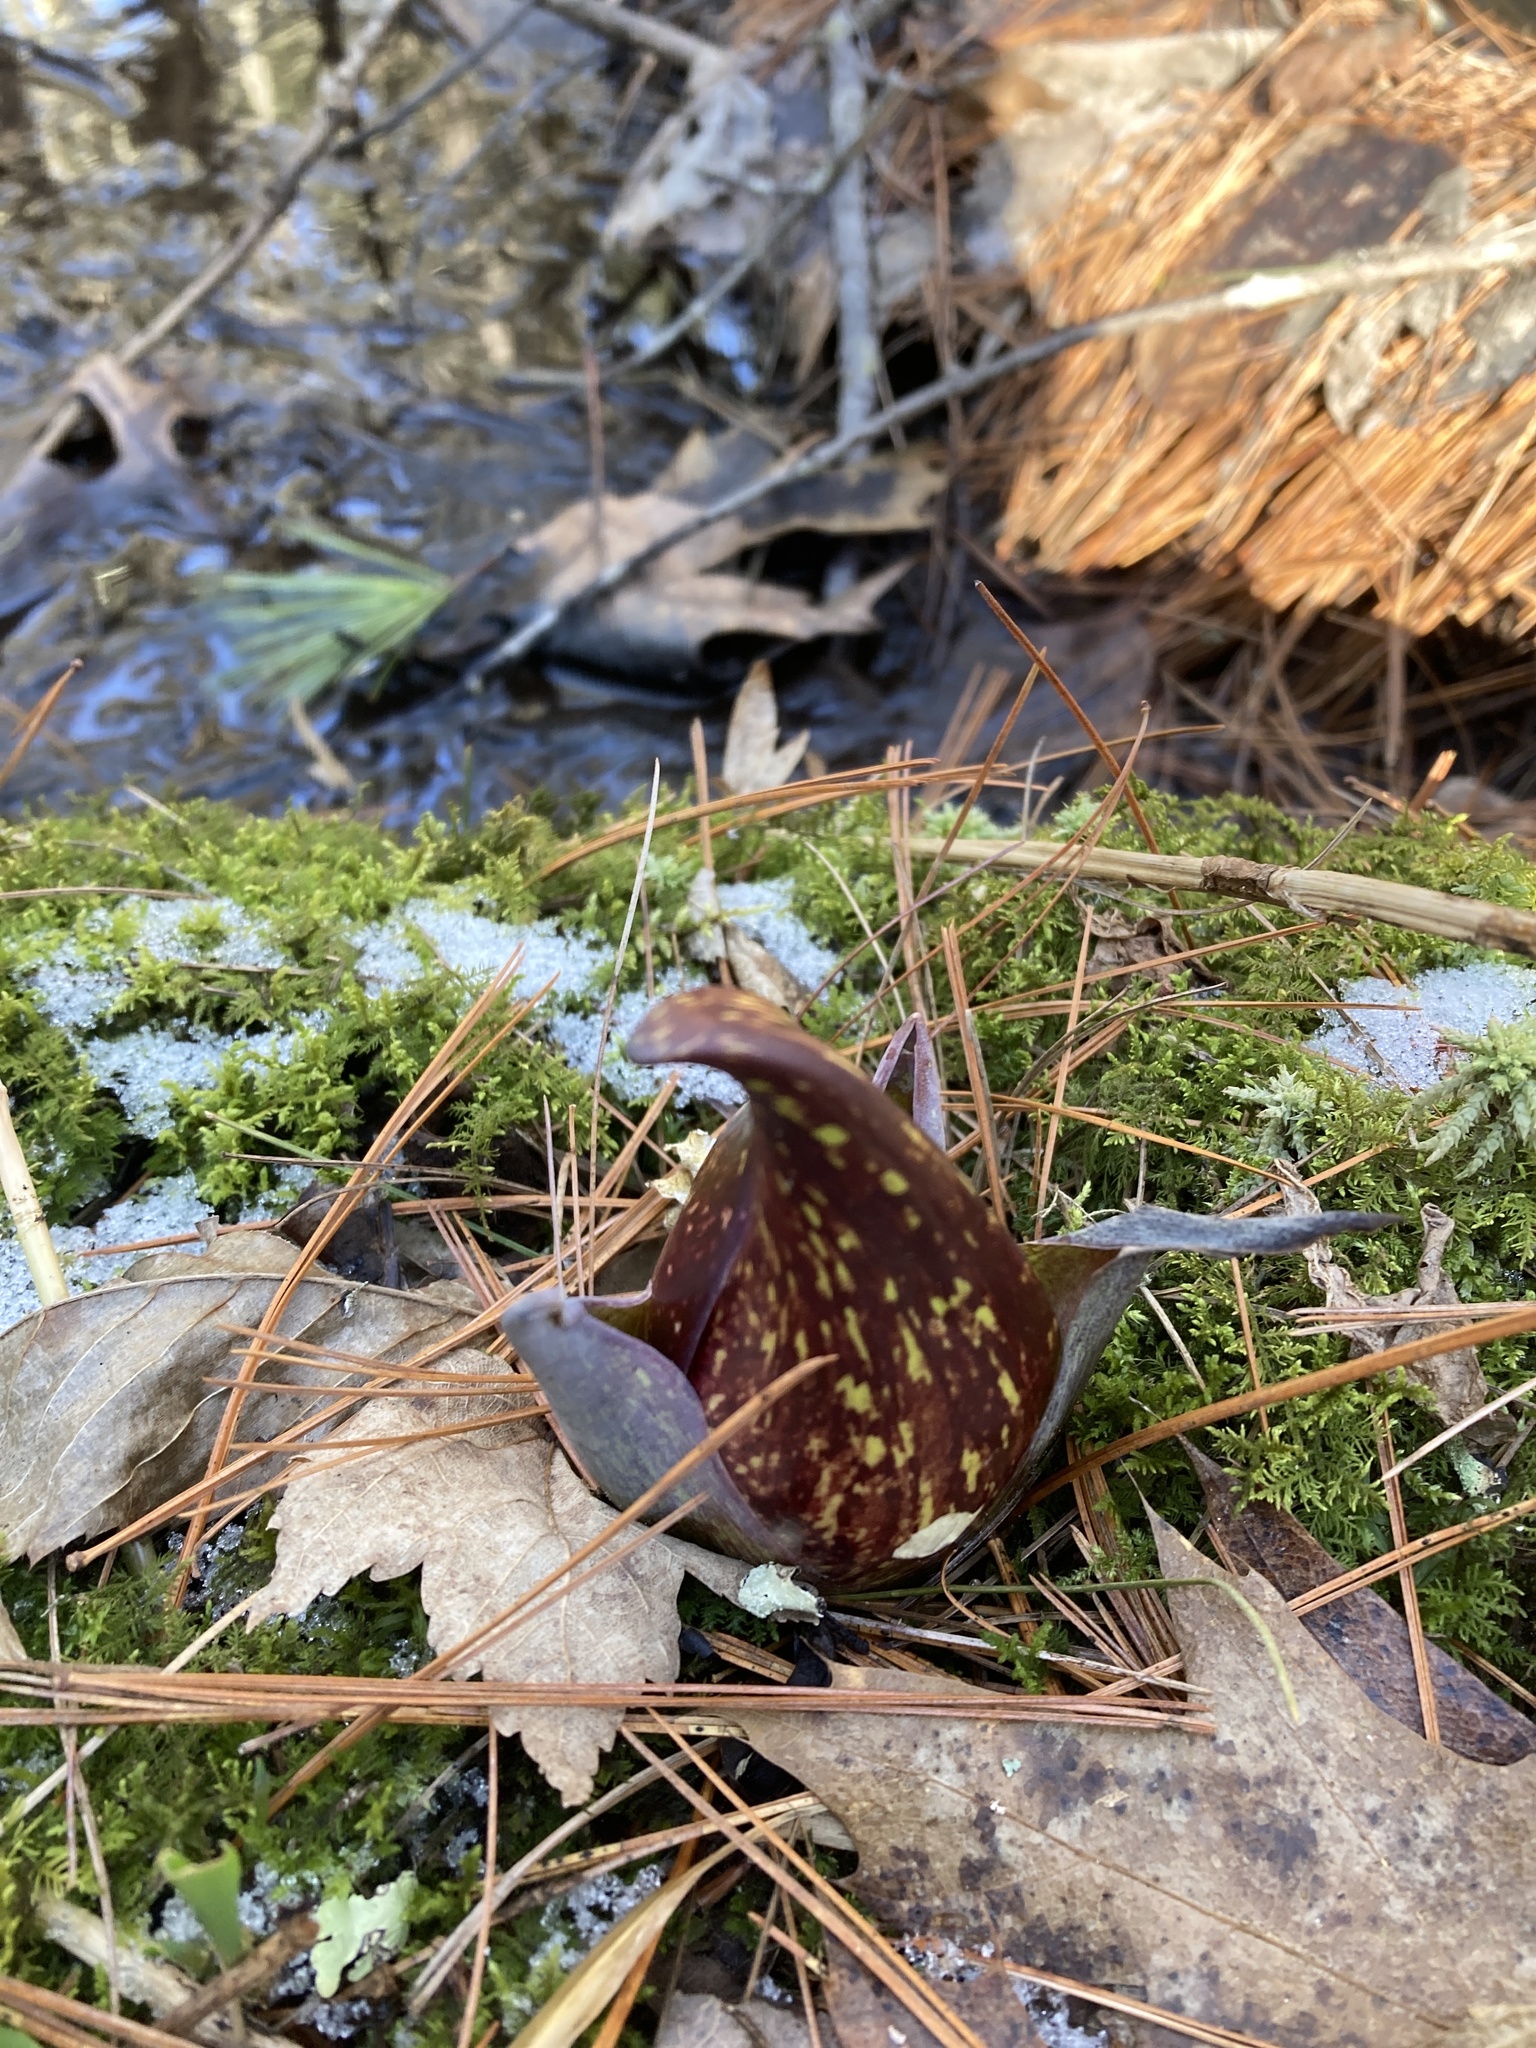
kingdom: Plantae
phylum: Tracheophyta
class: Liliopsida
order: Alismatales
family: Araceae
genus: Symplocarpus
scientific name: Symplocarpus foetidus
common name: Eastern skunk cabbage
